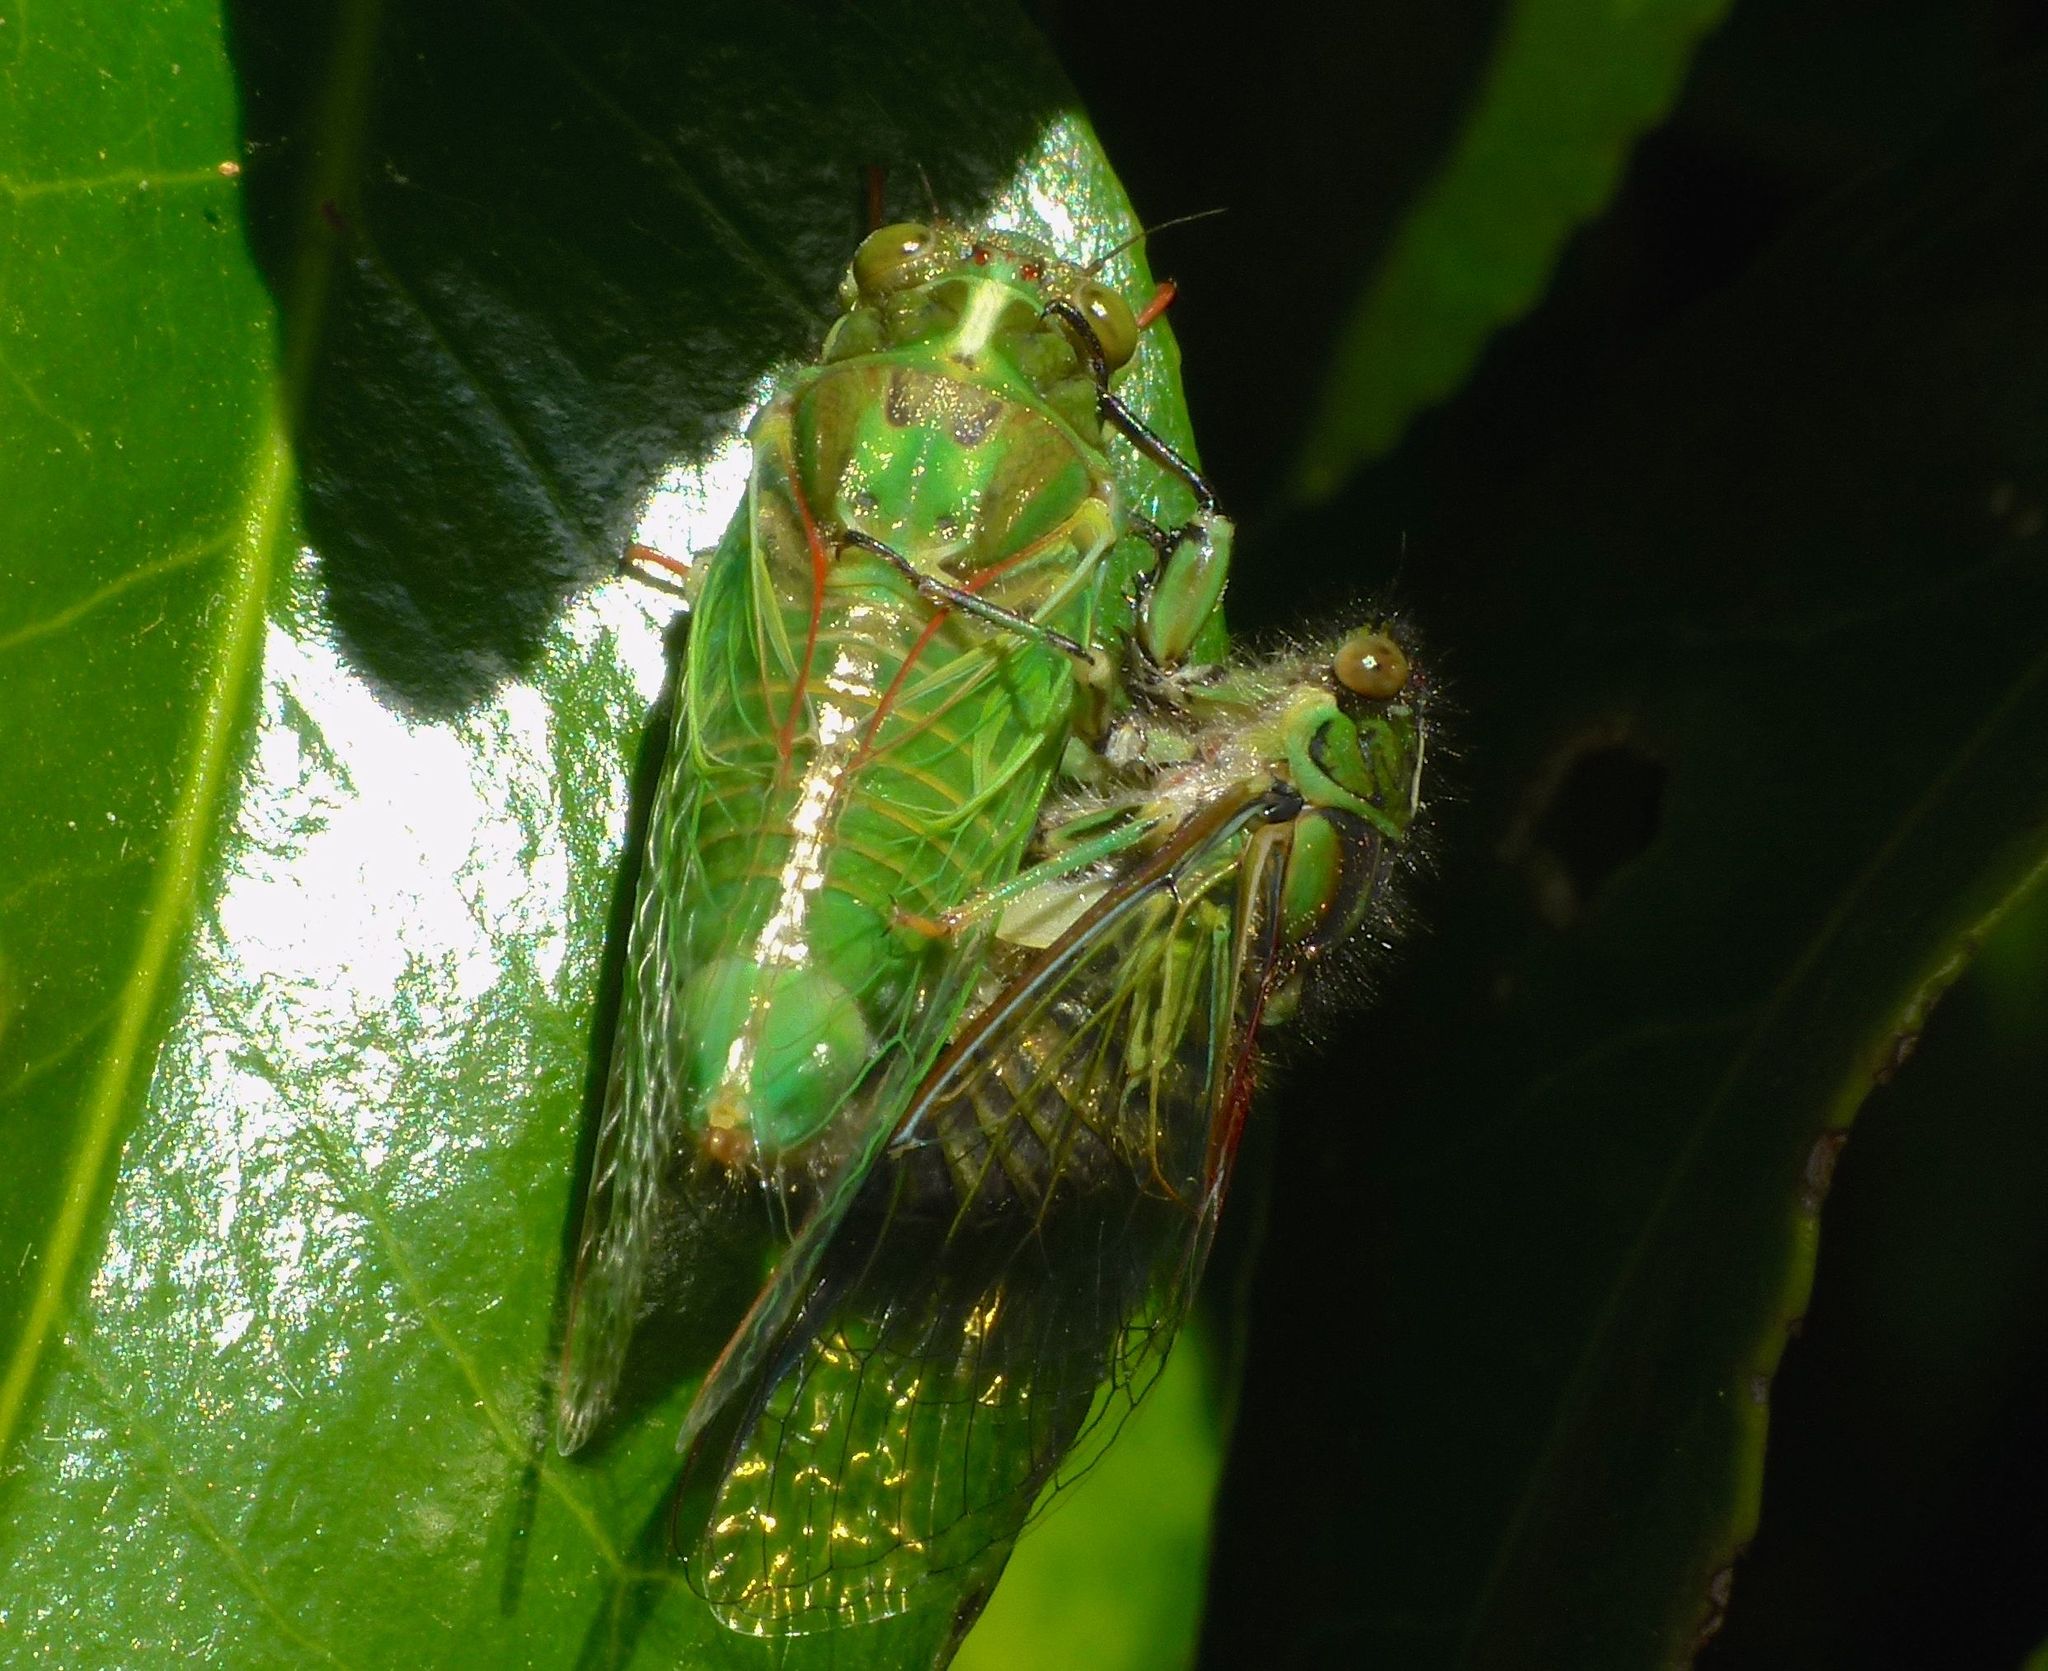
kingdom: Animalia
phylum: Arthropoda
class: Insecta
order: Hemiptera
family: Cicadidae
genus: Kikihia
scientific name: Kikihia subalpina
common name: Chathams cicada
